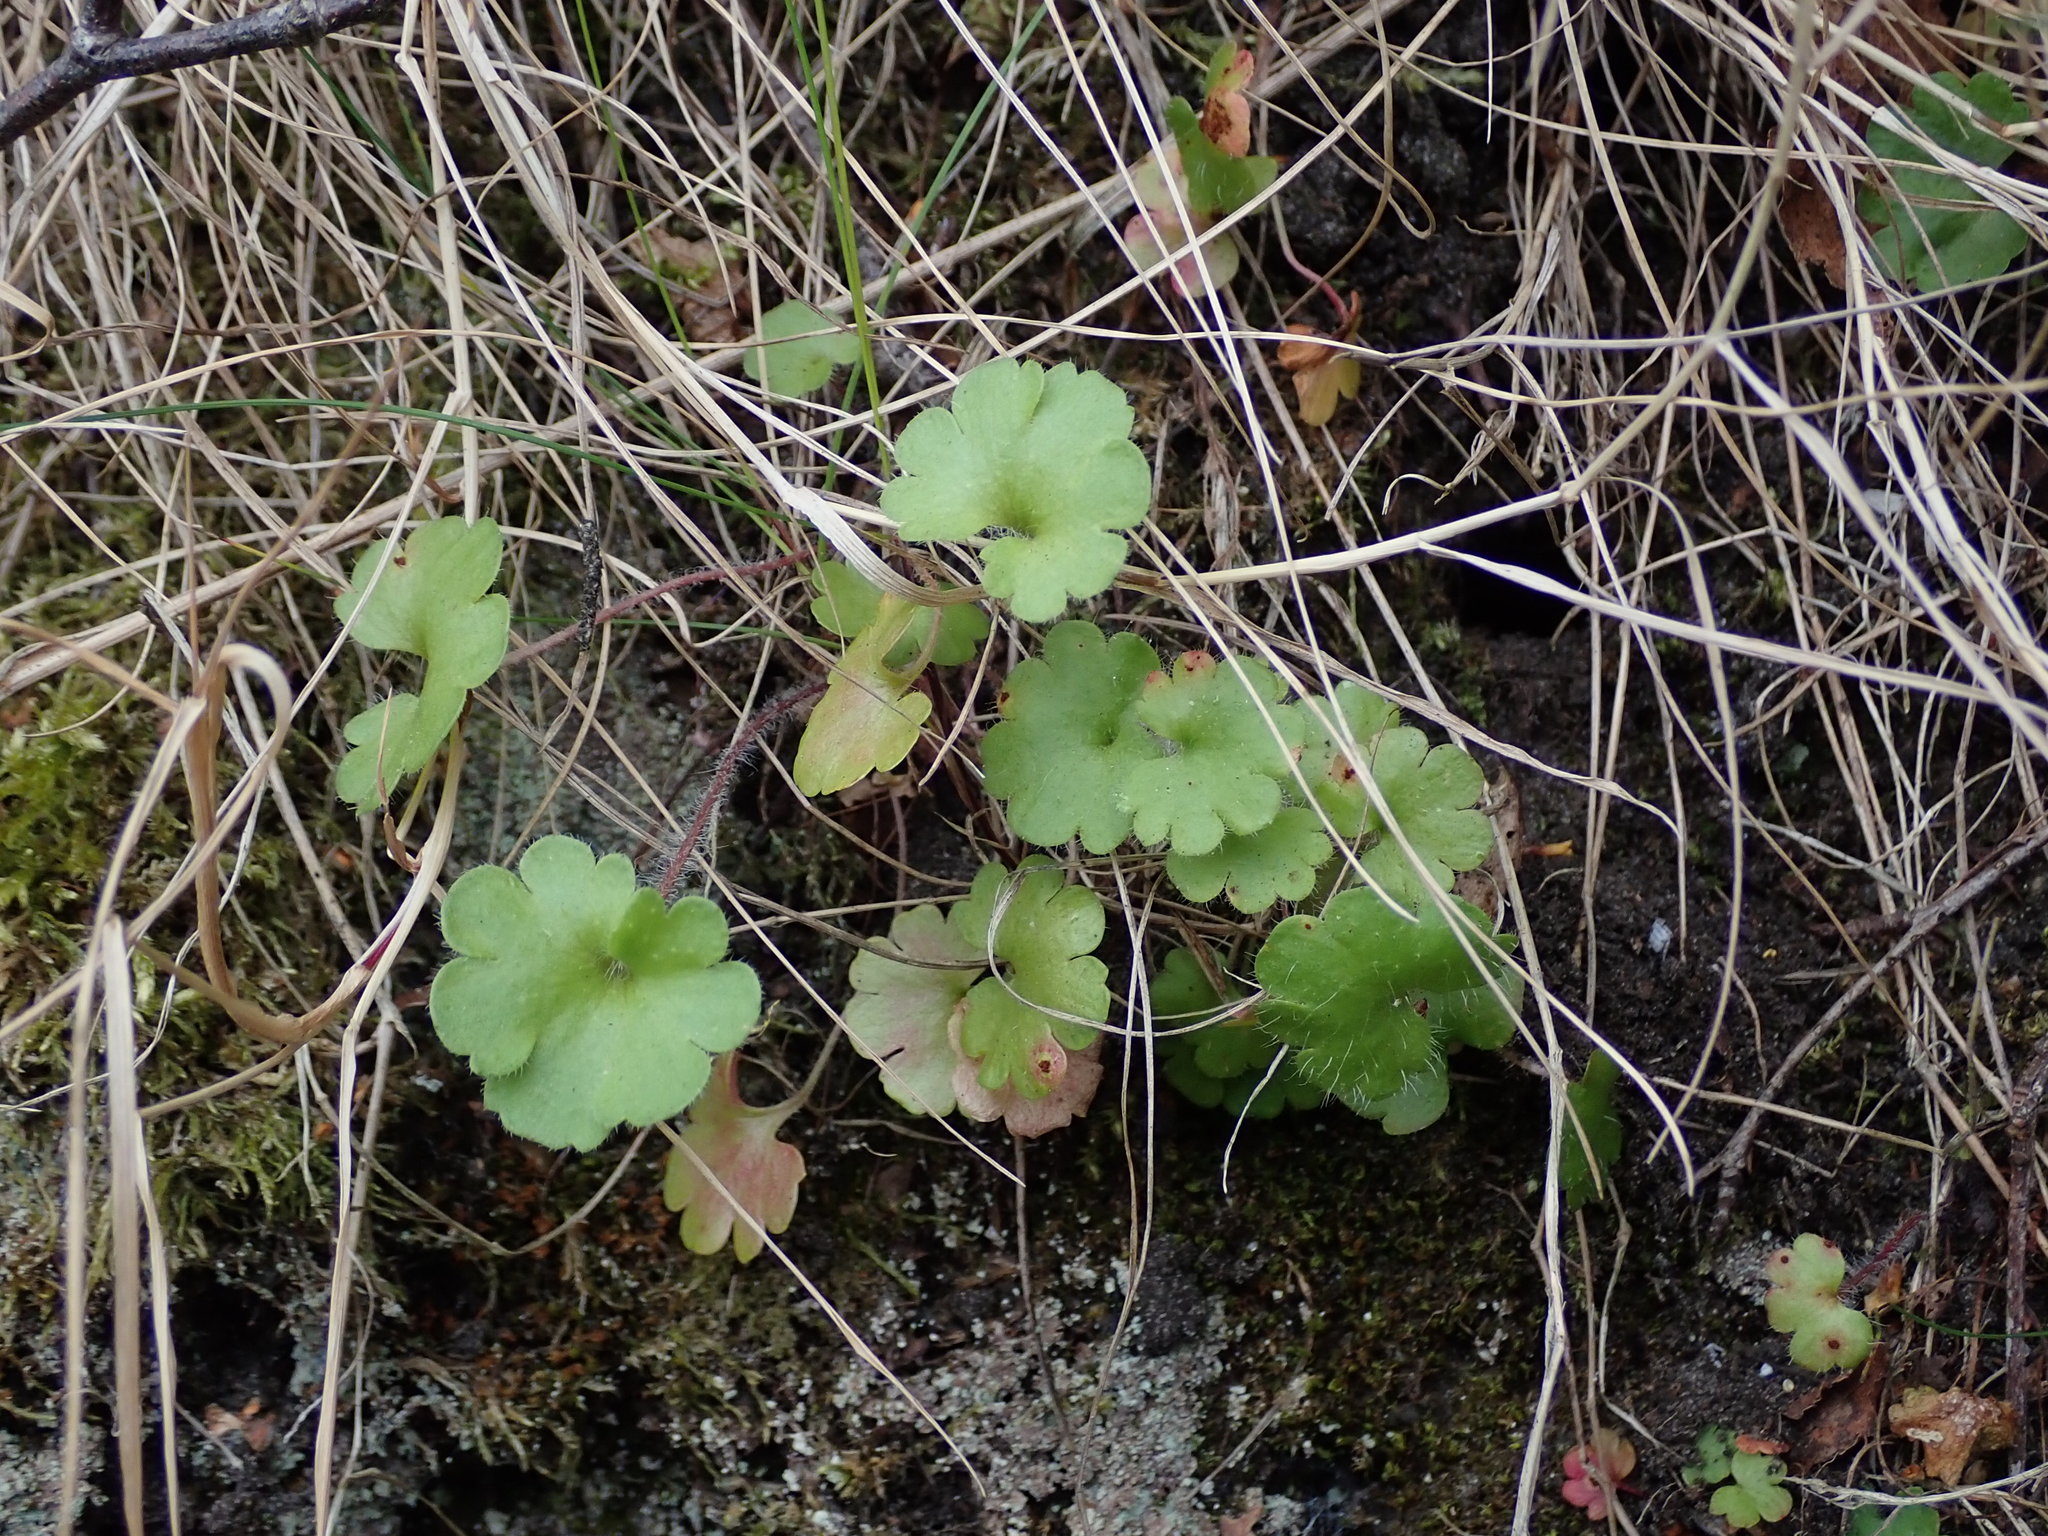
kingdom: Plantae
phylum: Tracheophyta
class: Magnoliopsida
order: Saxifragales
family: Saxifragaceae
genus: Saxifraga
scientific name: Saxifraga granulata
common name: Meadow saxifrage
